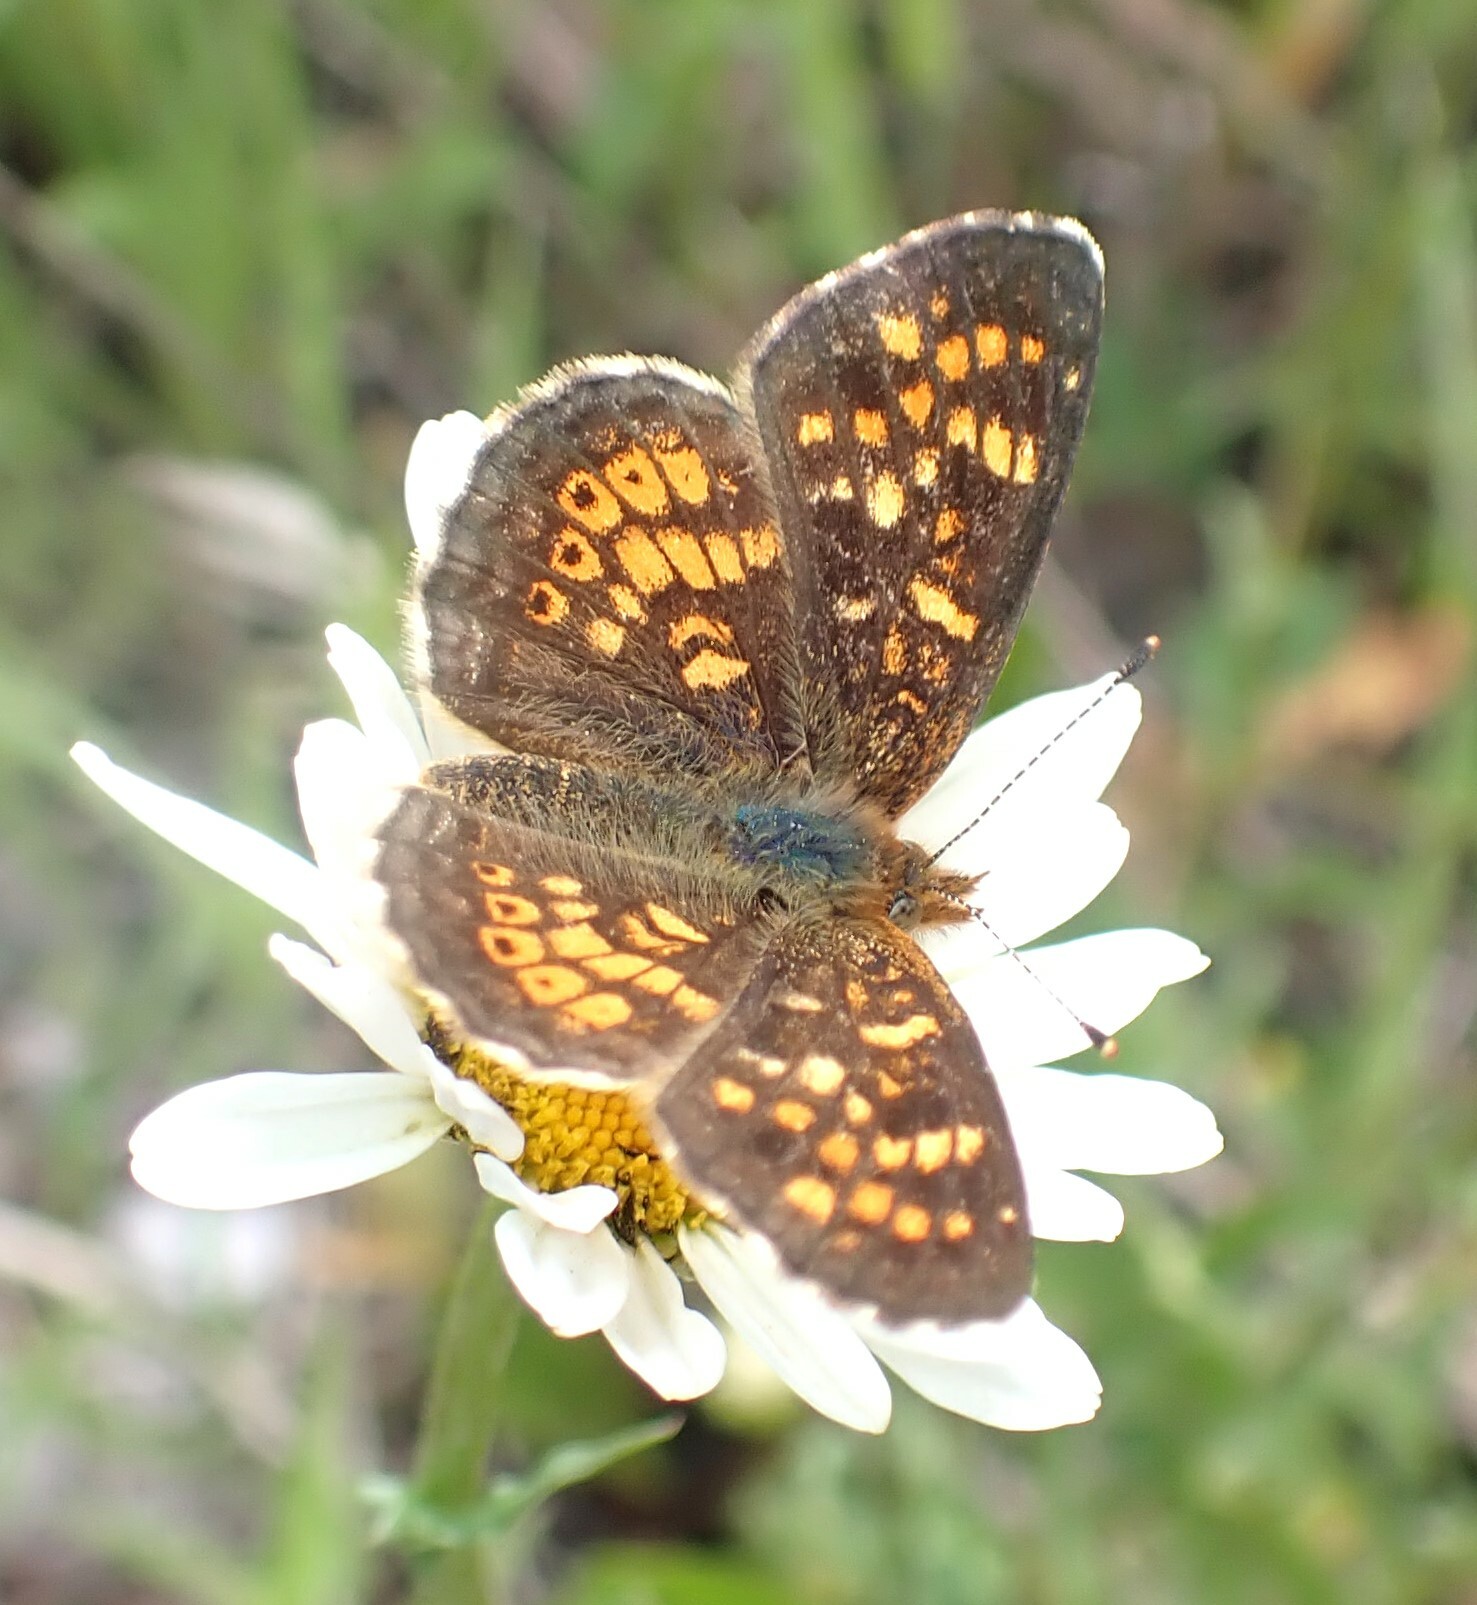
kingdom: Animalia
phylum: Arthropoda
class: Insecta
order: Lepidoptera
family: Nymphalidae
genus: Phyciodes
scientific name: Phyciodes tharos
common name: Pearl crescent
